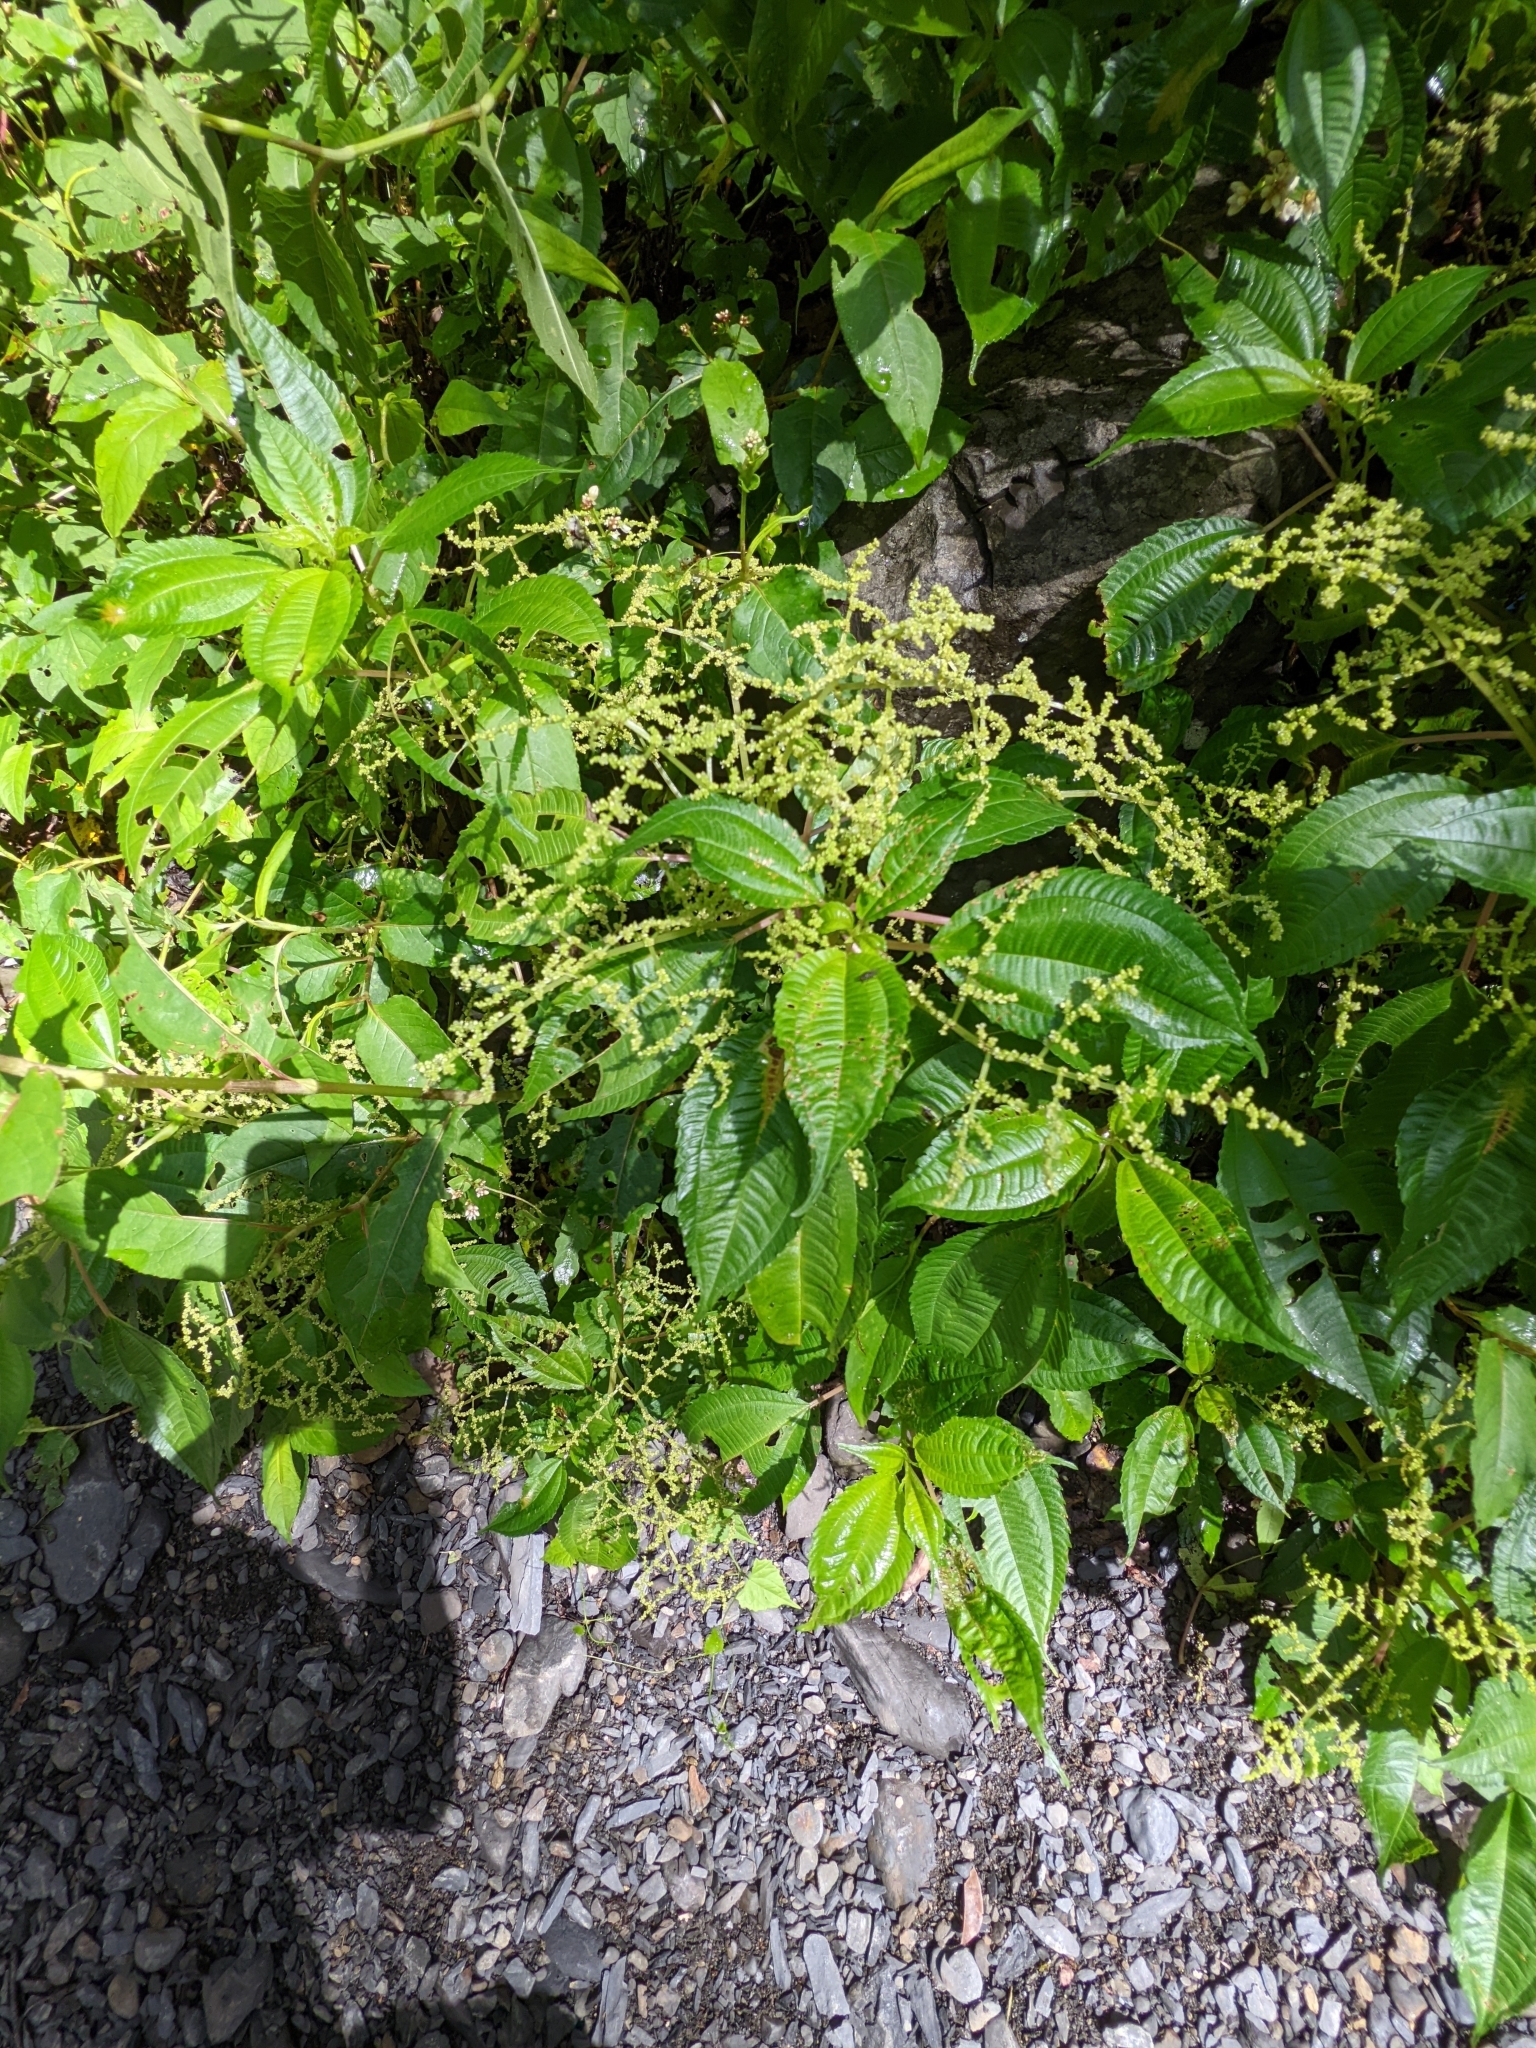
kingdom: Plantae
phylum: Tracheophyta
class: Magnoliopsida
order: Rosales
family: Urticaceae
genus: Pilea
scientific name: Pilea melastomoides
